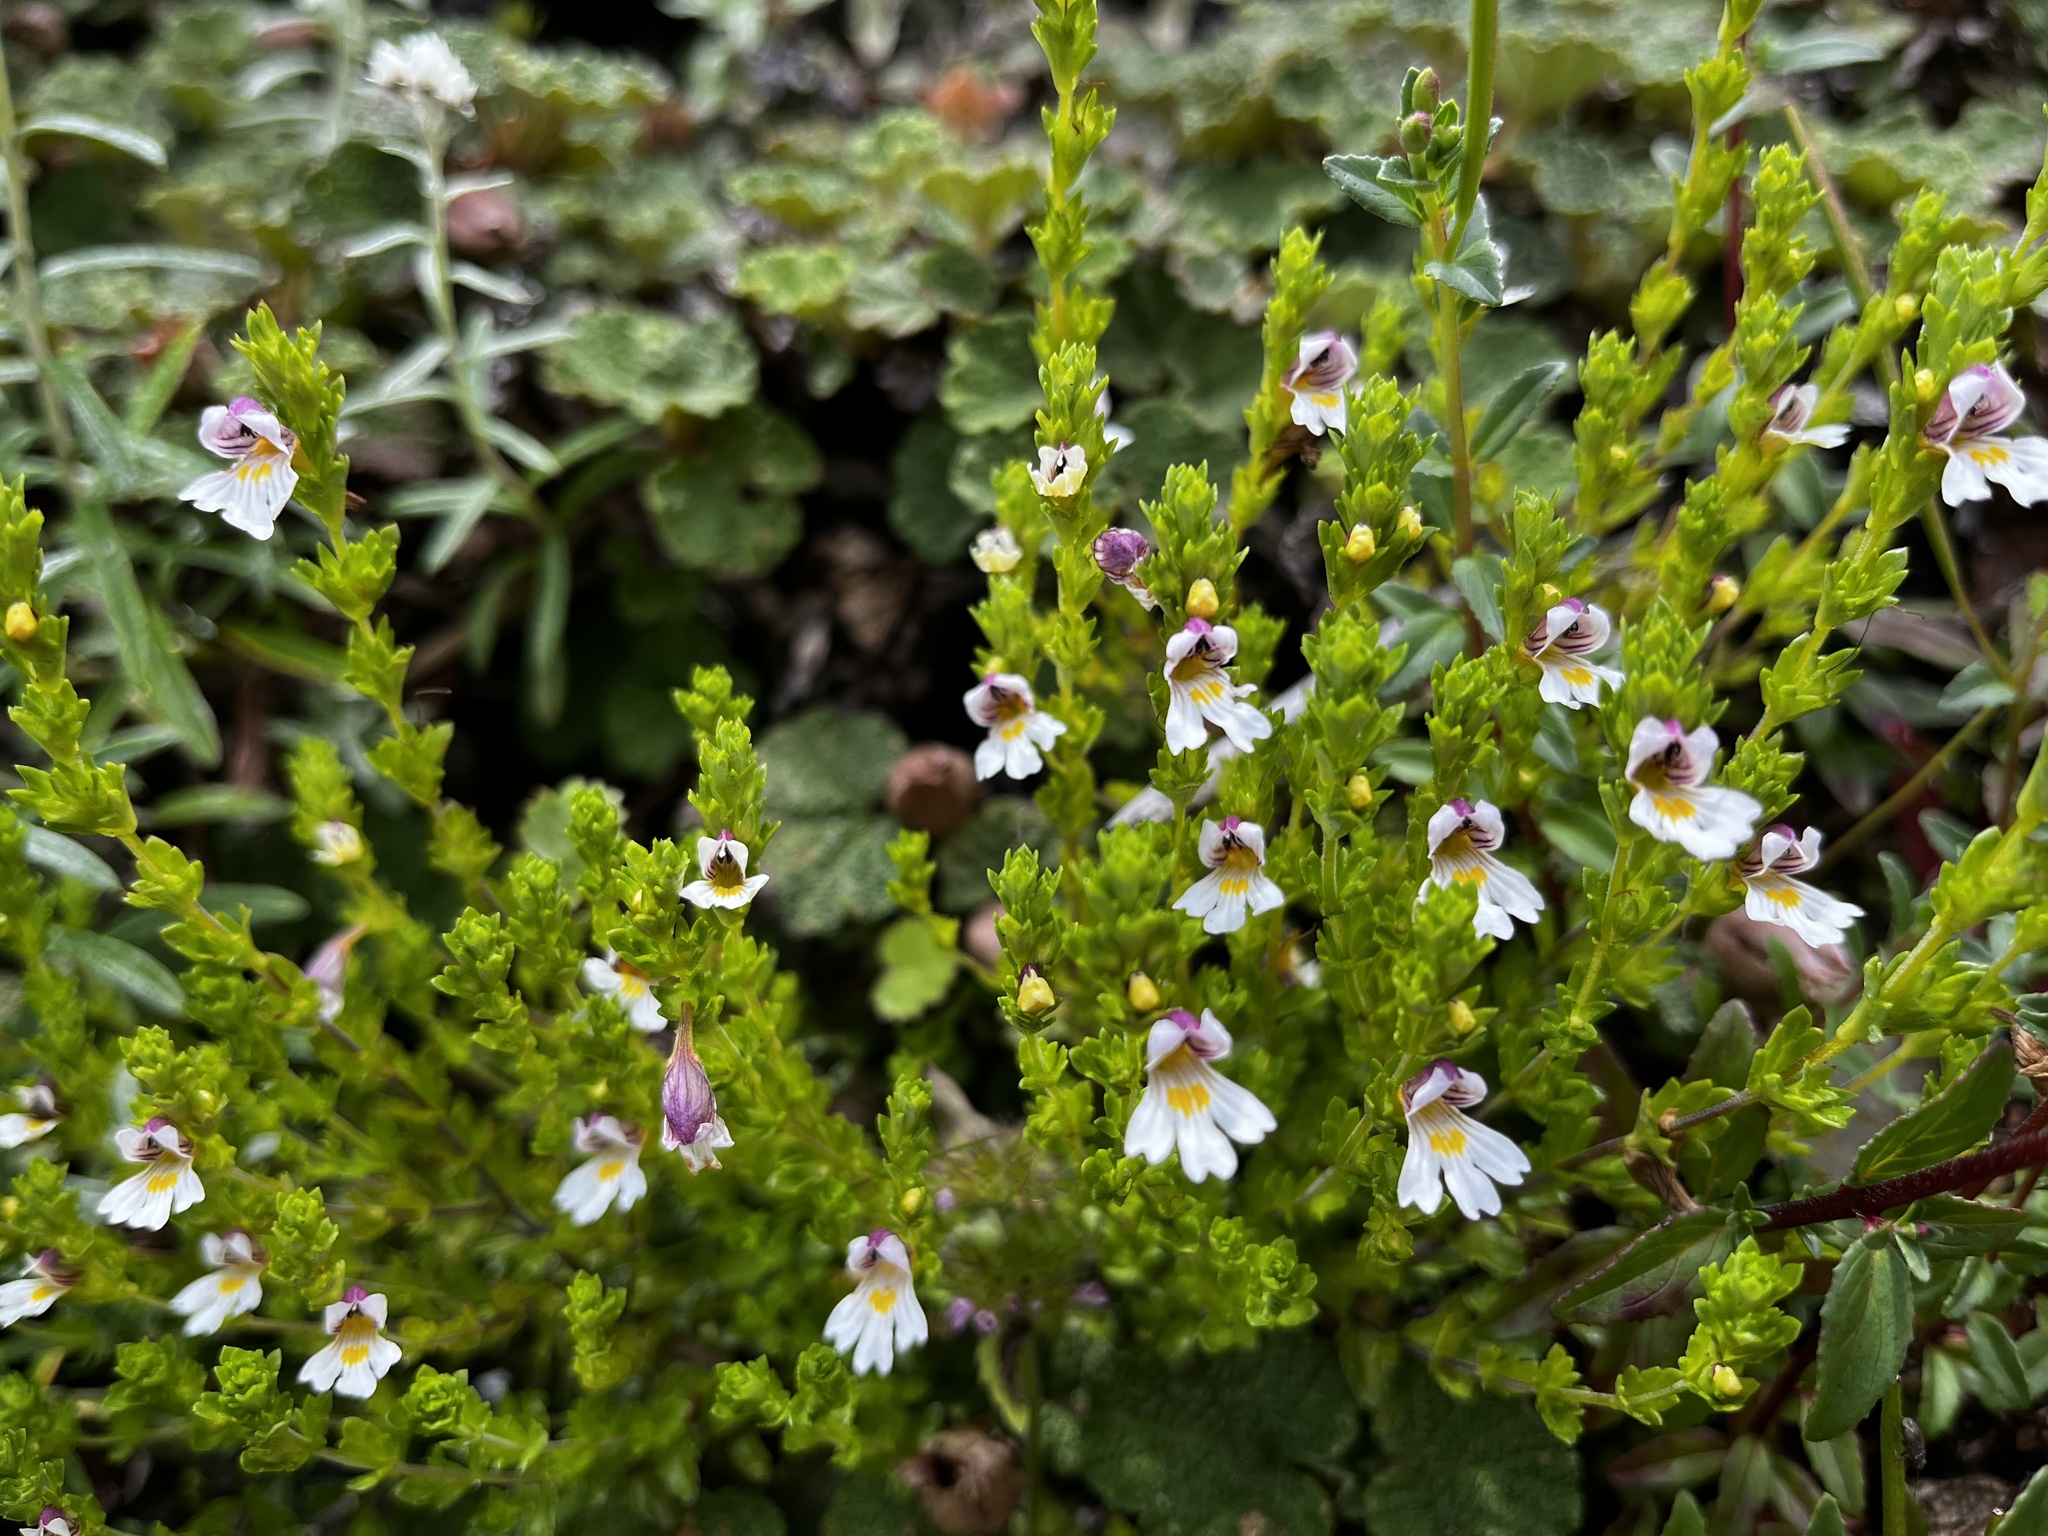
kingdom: Plantae
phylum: Tracheophyta
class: Magnoliopsida
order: Lamiales
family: Orobanchaceae
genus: Euphrasia
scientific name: Euphrasia transmorrisonensis
